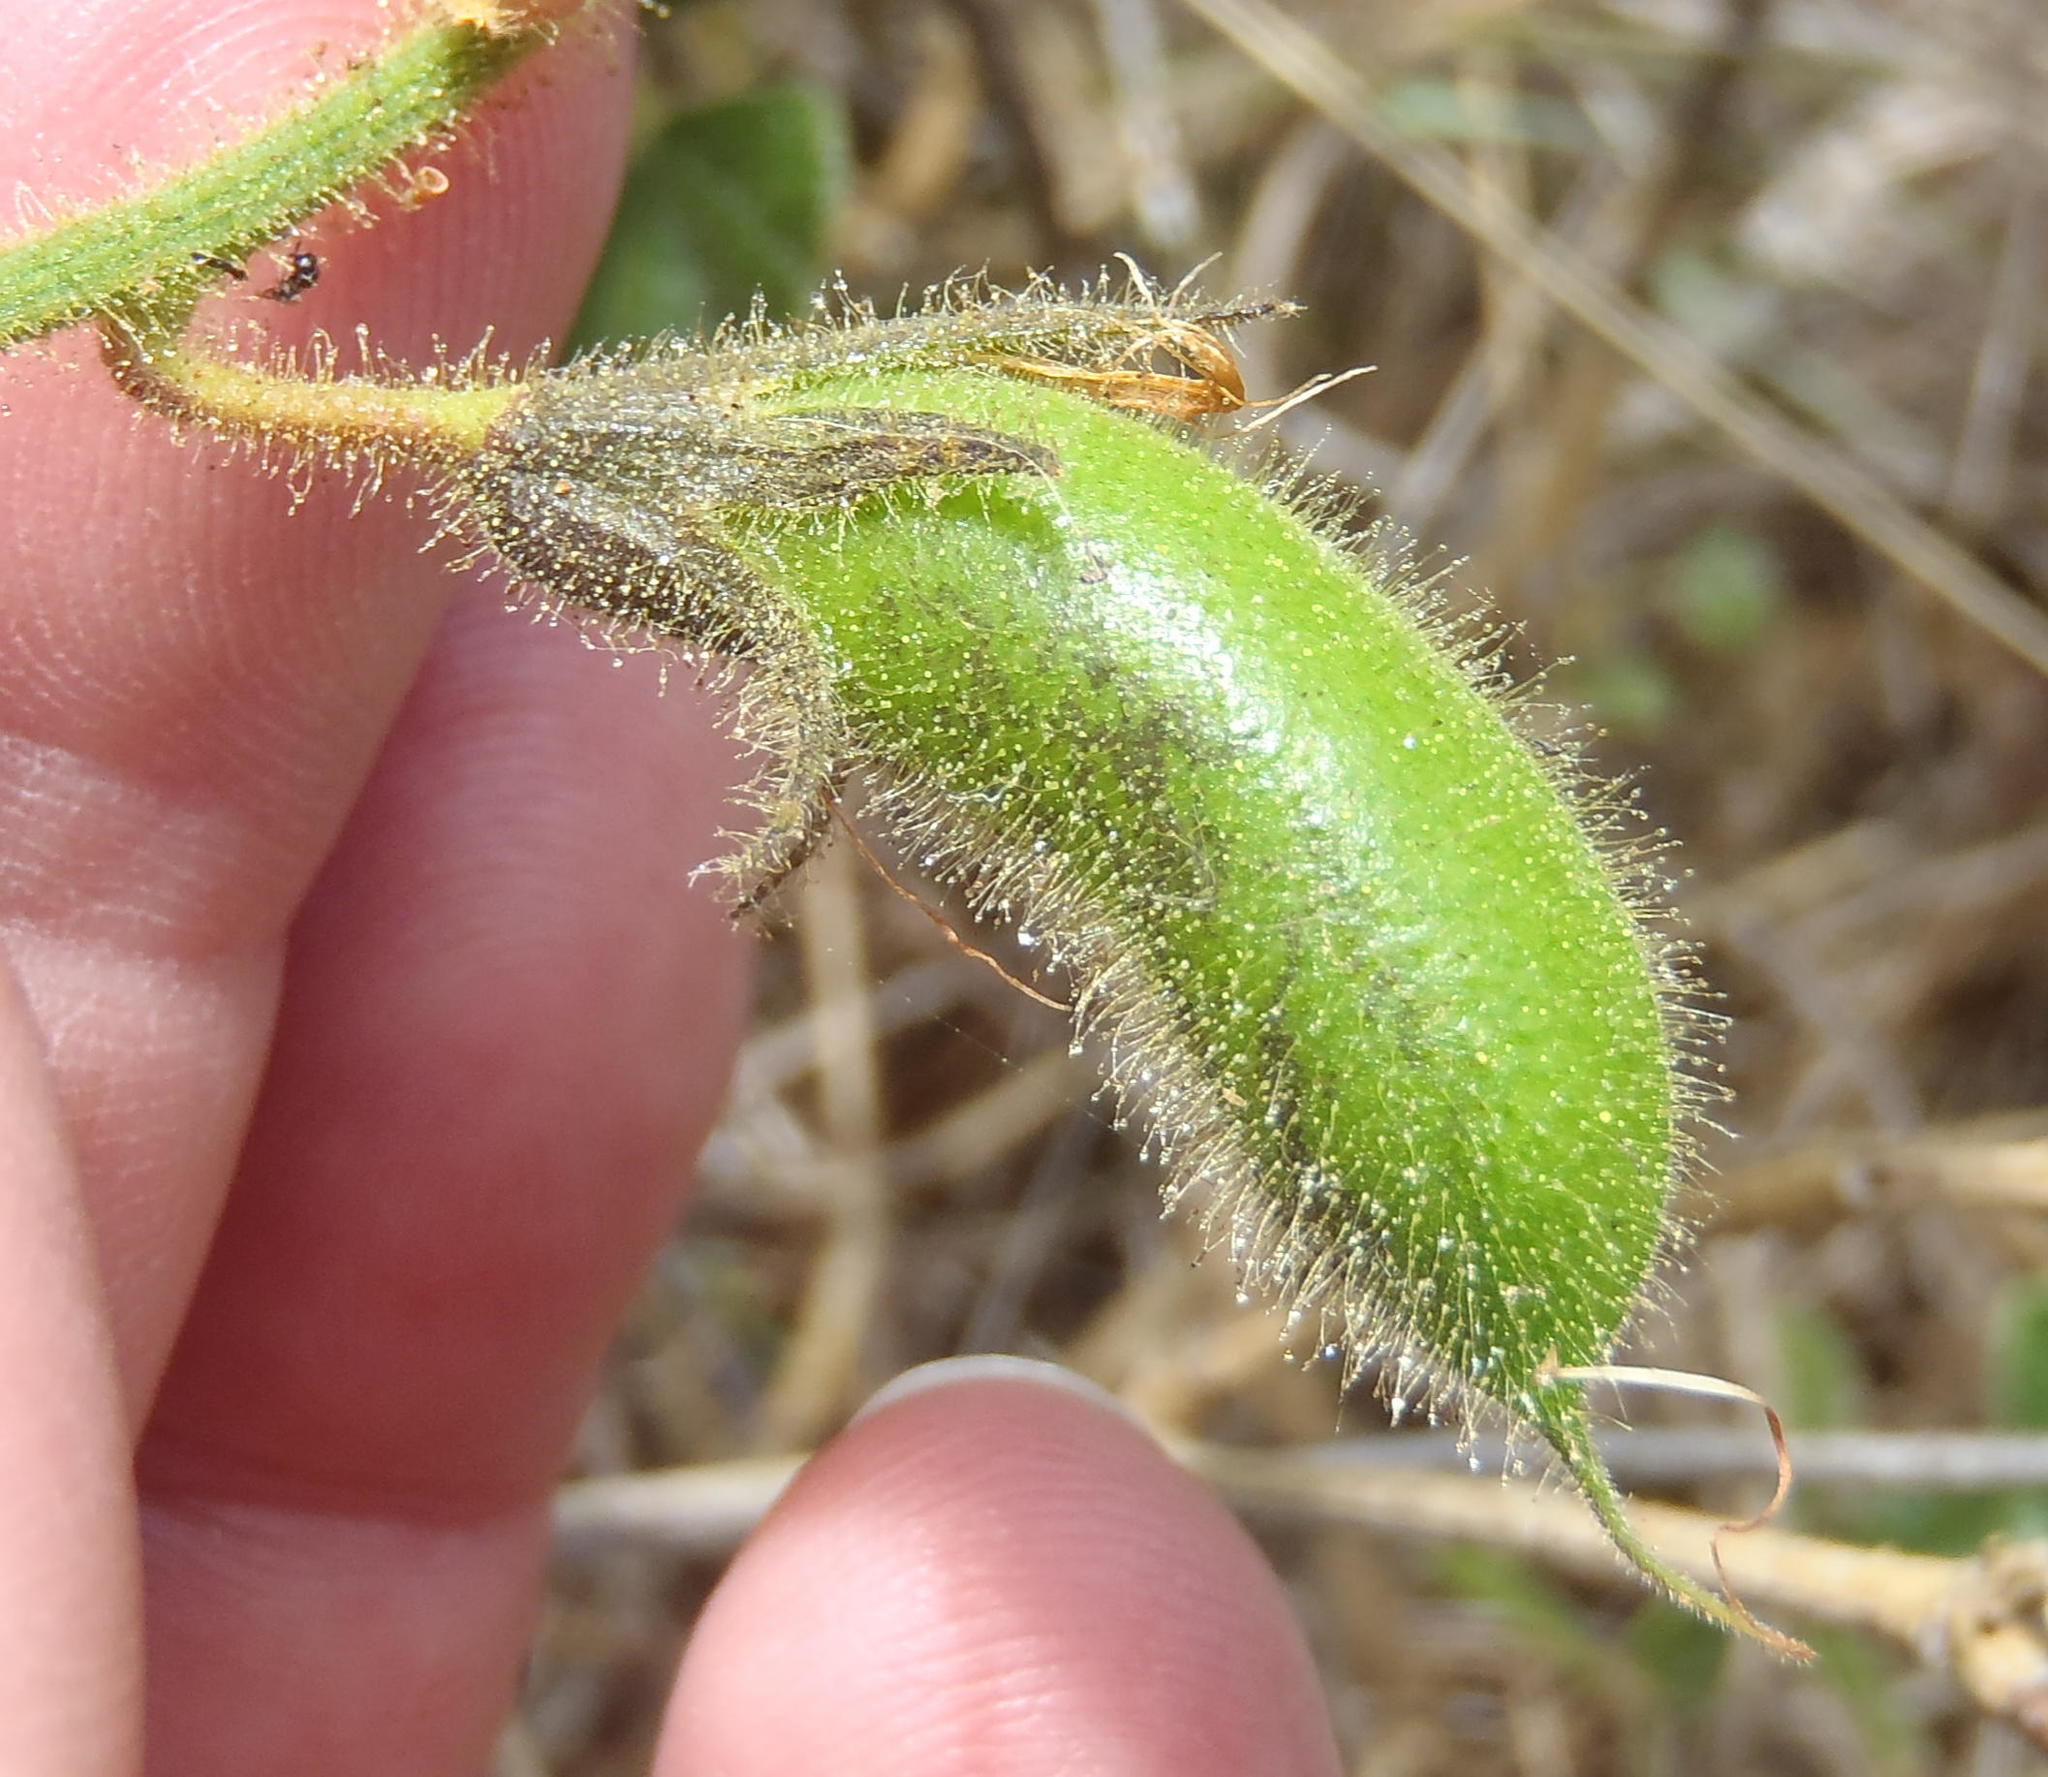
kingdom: Plantae
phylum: Tracheophyta
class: Magnoliopsida
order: Fabales
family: Fabaceae
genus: Bolusafra
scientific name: Bolusafra bituminosa
